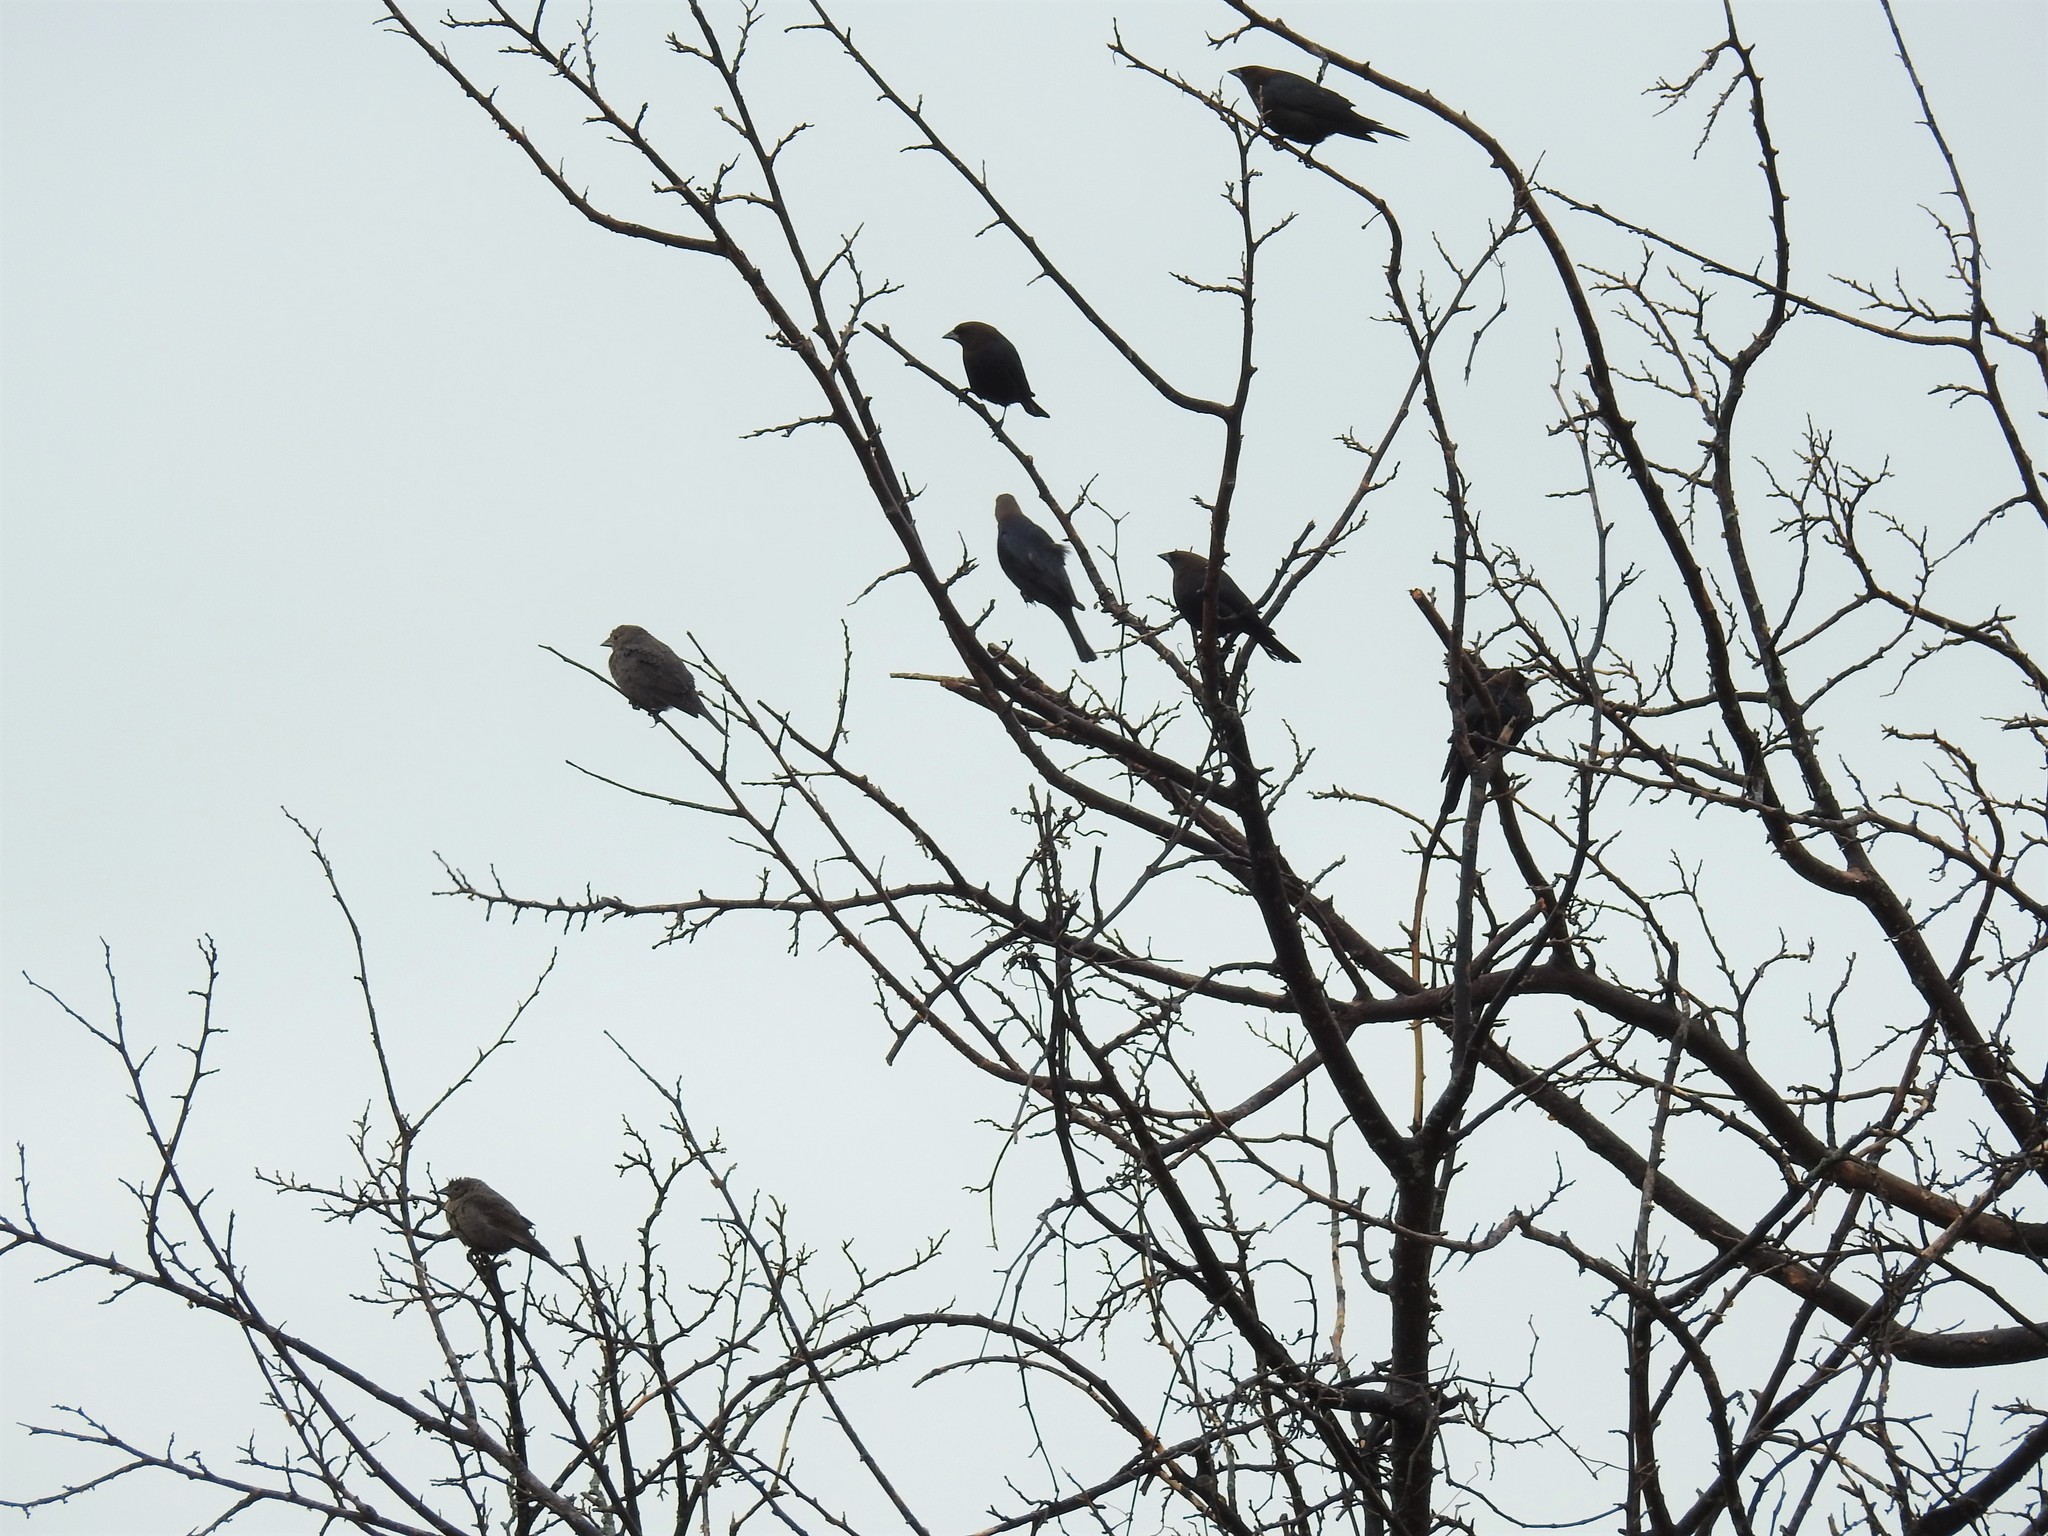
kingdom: Animalia
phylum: Chordata
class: Aves
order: Passeriformes
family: Icteridae
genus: Molothrus
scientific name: Molothrus ater
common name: Brown-headed cowbird
